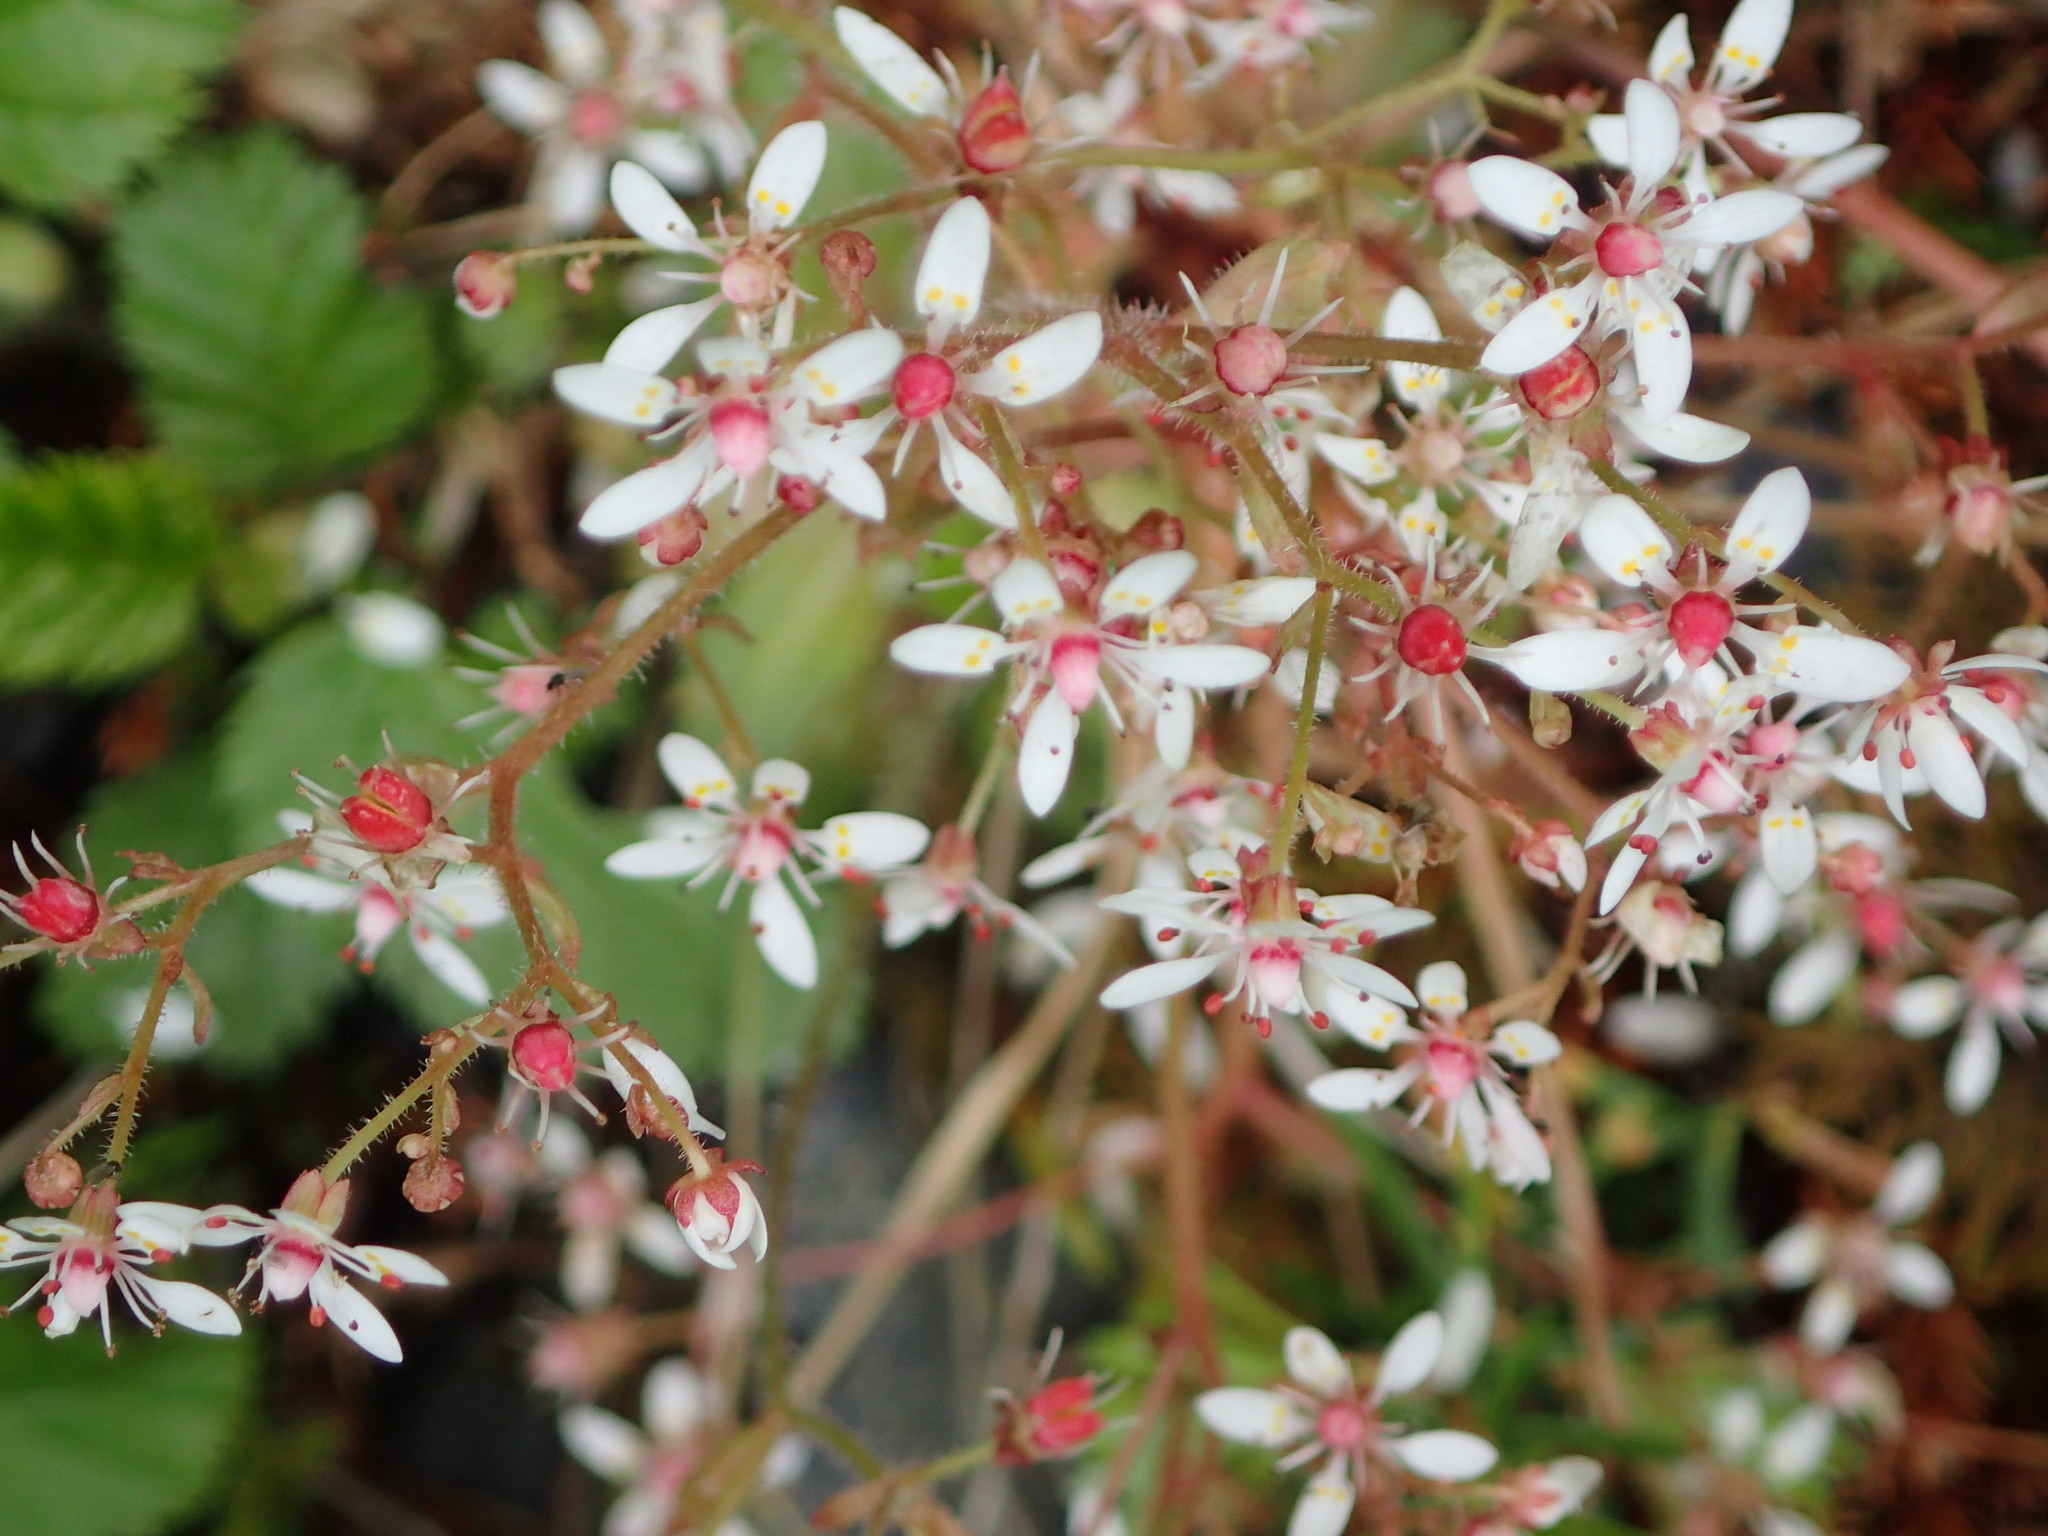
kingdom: Plantae
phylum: Tracheophyta
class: Magnoliopsida
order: Saxifragales
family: Saxifragaceae
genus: Micranthes
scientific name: Micranthes ferruginea
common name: Rusty saxifrage
